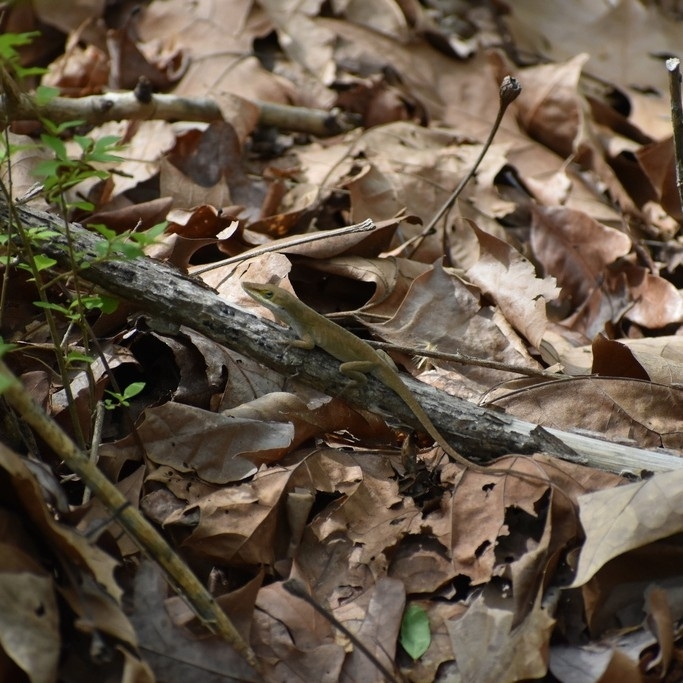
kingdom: Animalia
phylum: Chordata
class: Squamata
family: Dactyloidae
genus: Anolis
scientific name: Anolis carolinensis
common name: Green anole
